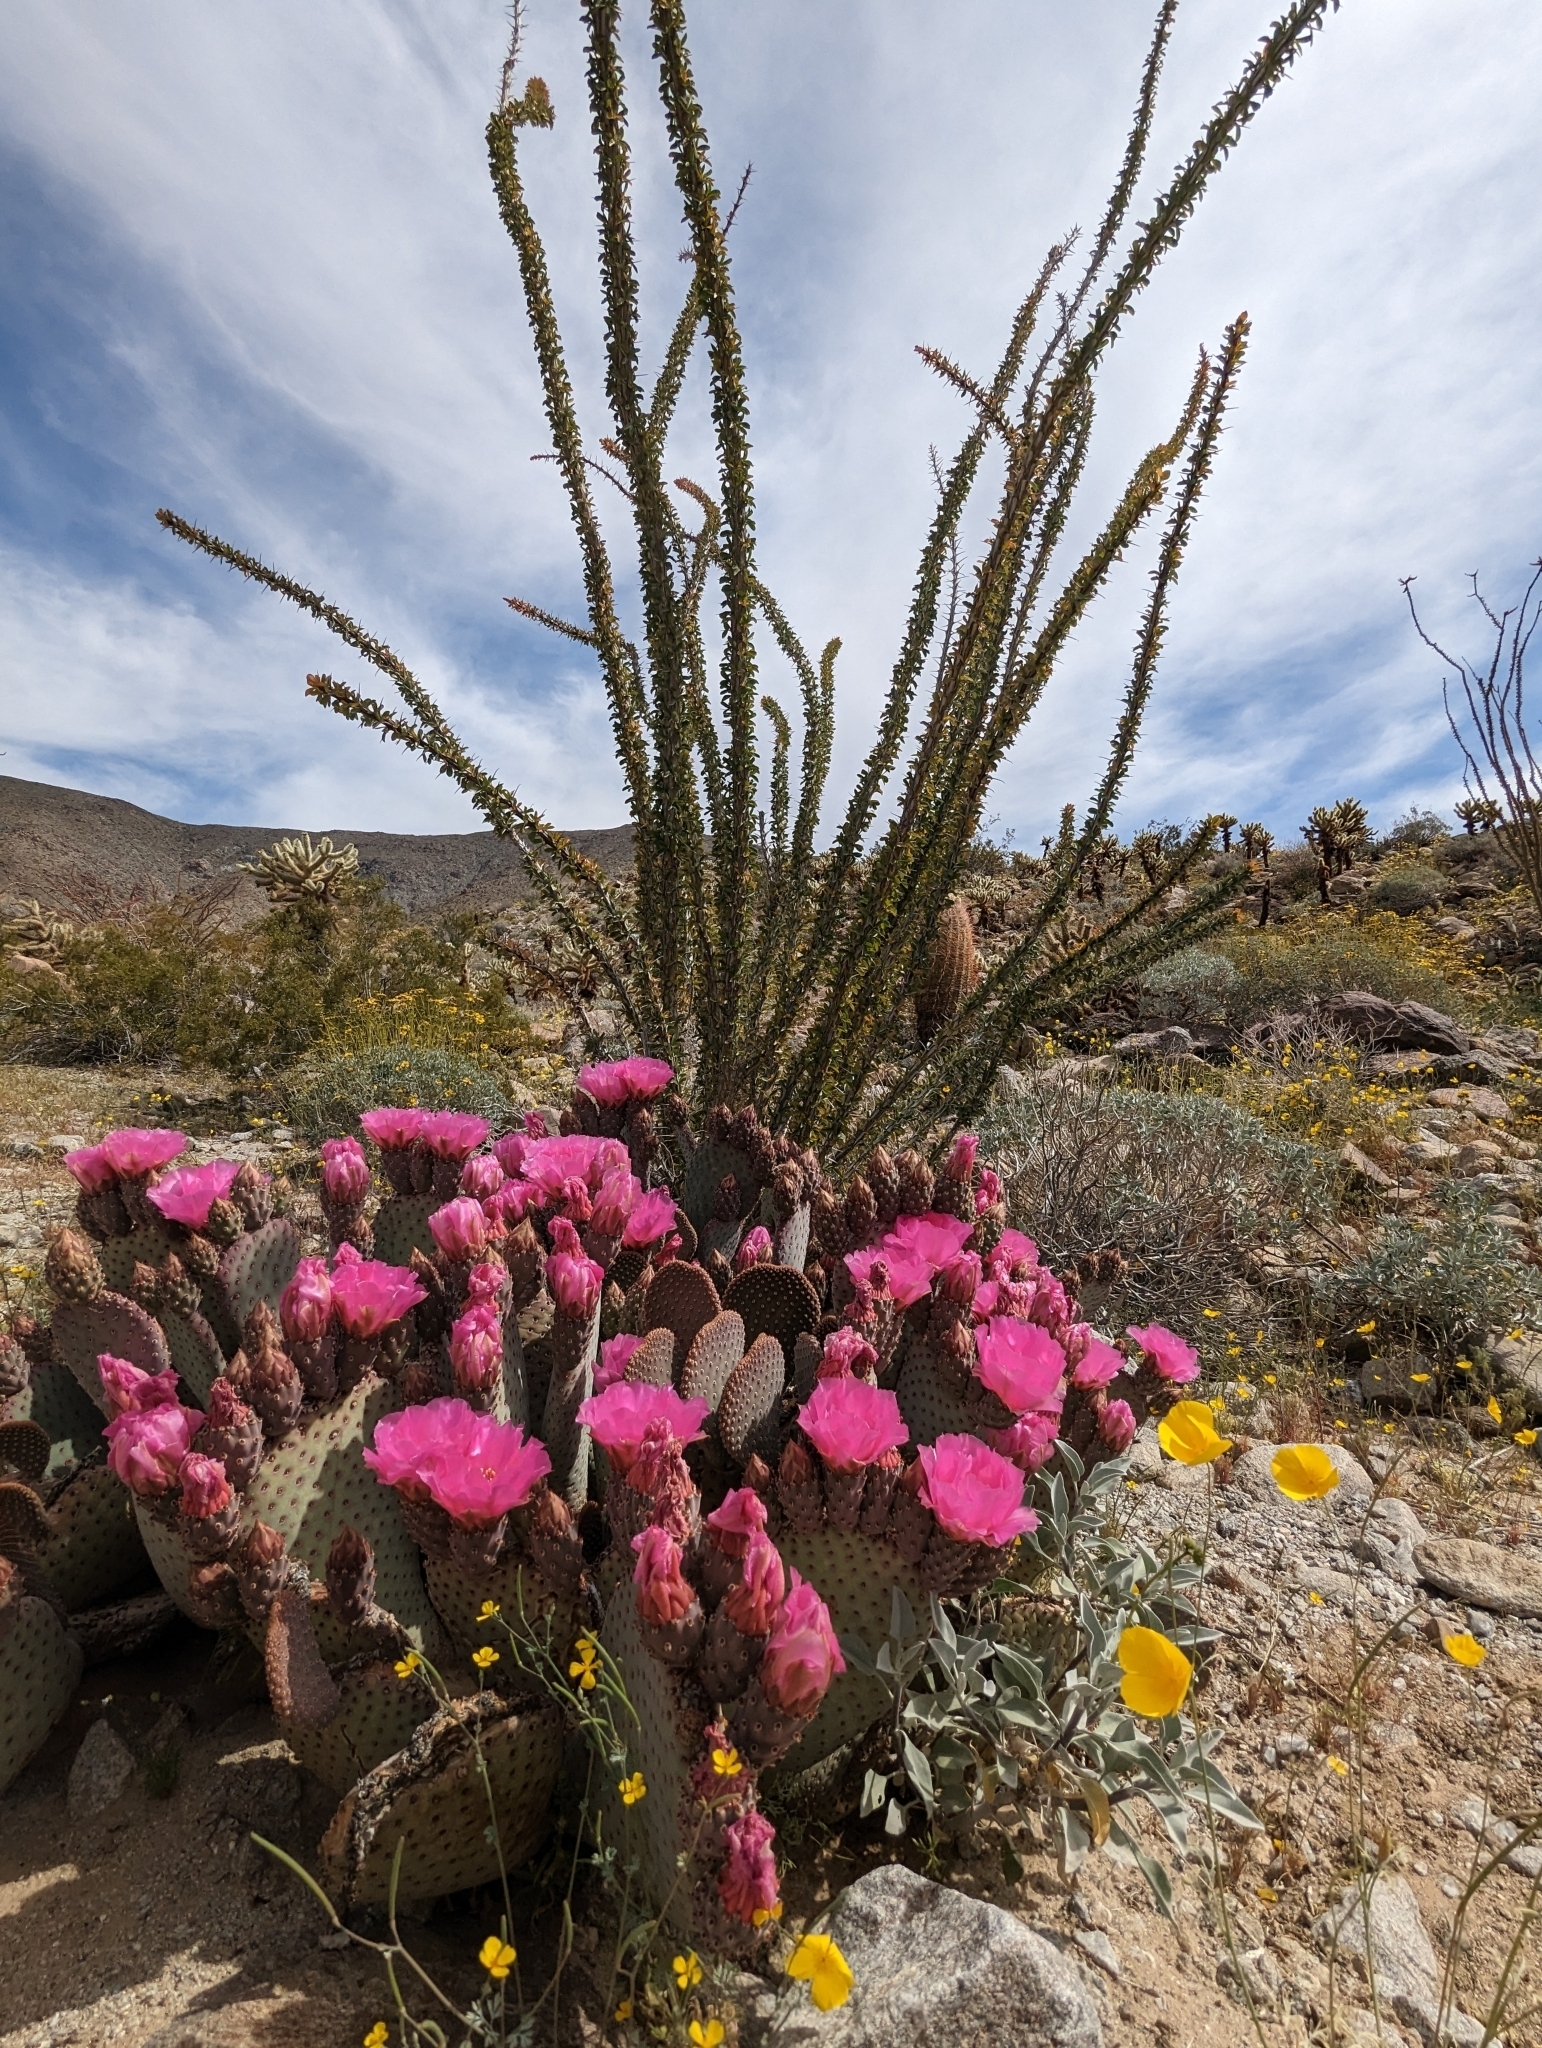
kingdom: Plantae
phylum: Tracheophyta
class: Magnoliopsida
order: Caryophyllales
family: Cactaceae
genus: Opuntia
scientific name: Opuntia basilaris
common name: Beavertail prickly-pear
